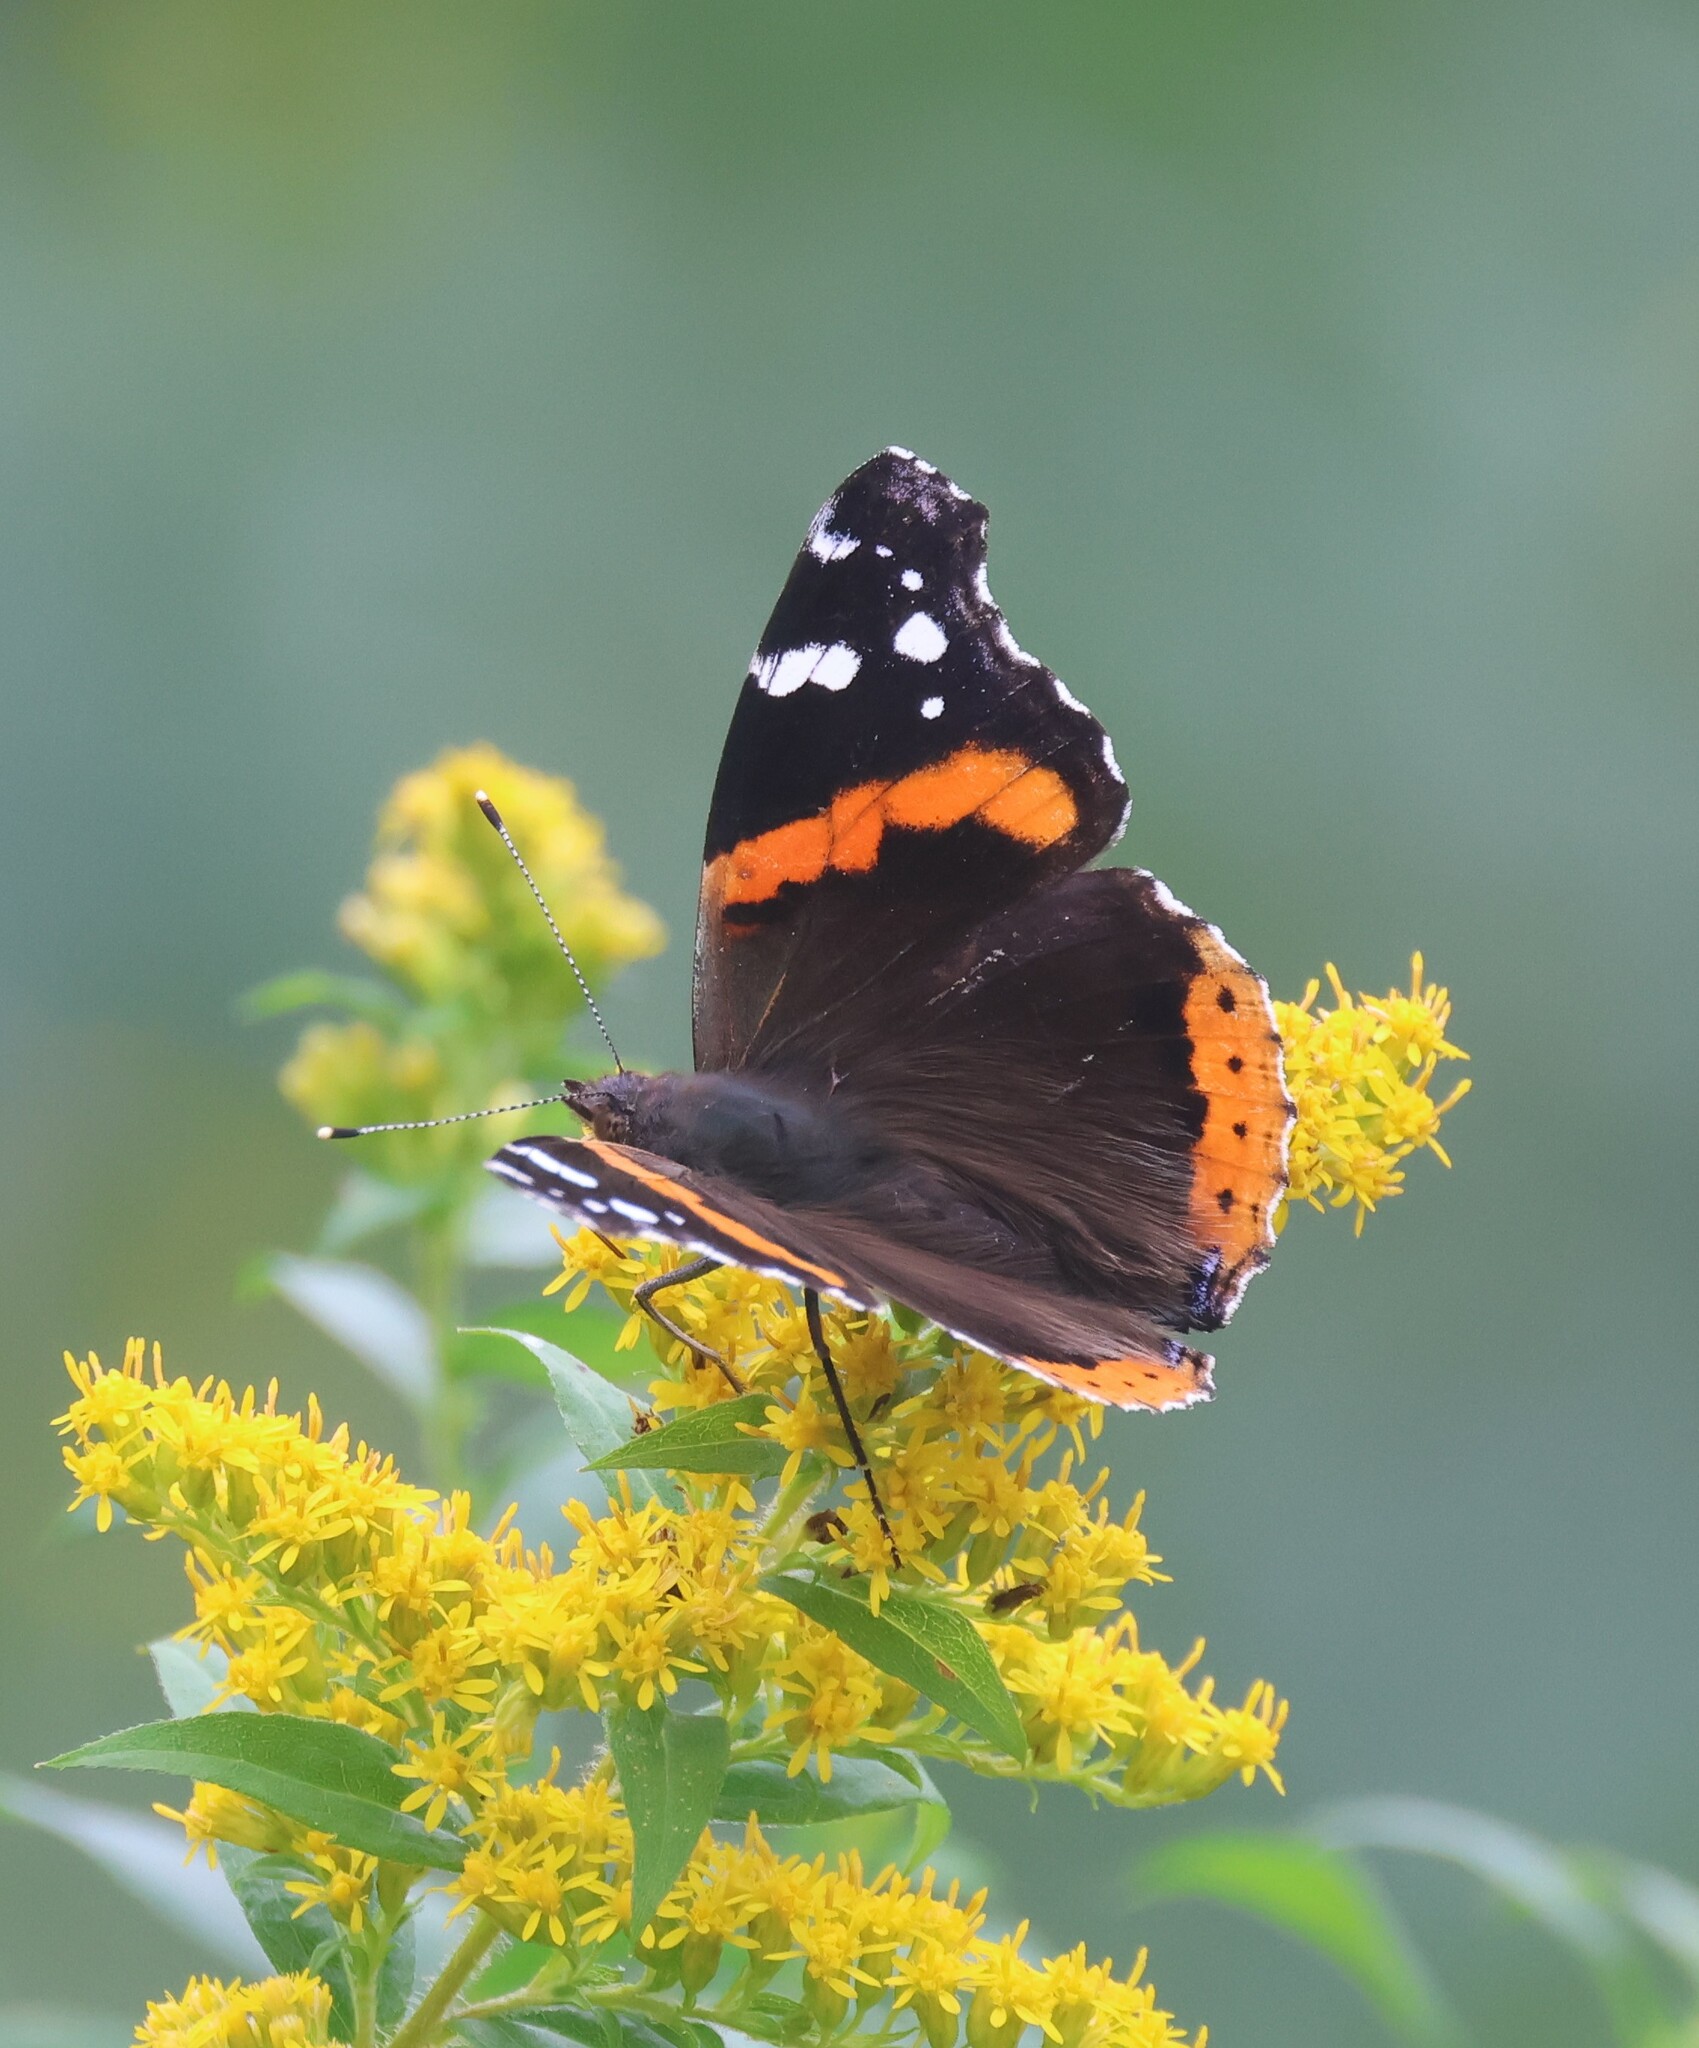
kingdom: Animalia
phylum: Arthropoda
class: Insecta
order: Lepidoptera
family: Nymphalidae
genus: Vanessa
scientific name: Vanessa atalanta
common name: Red admiral
